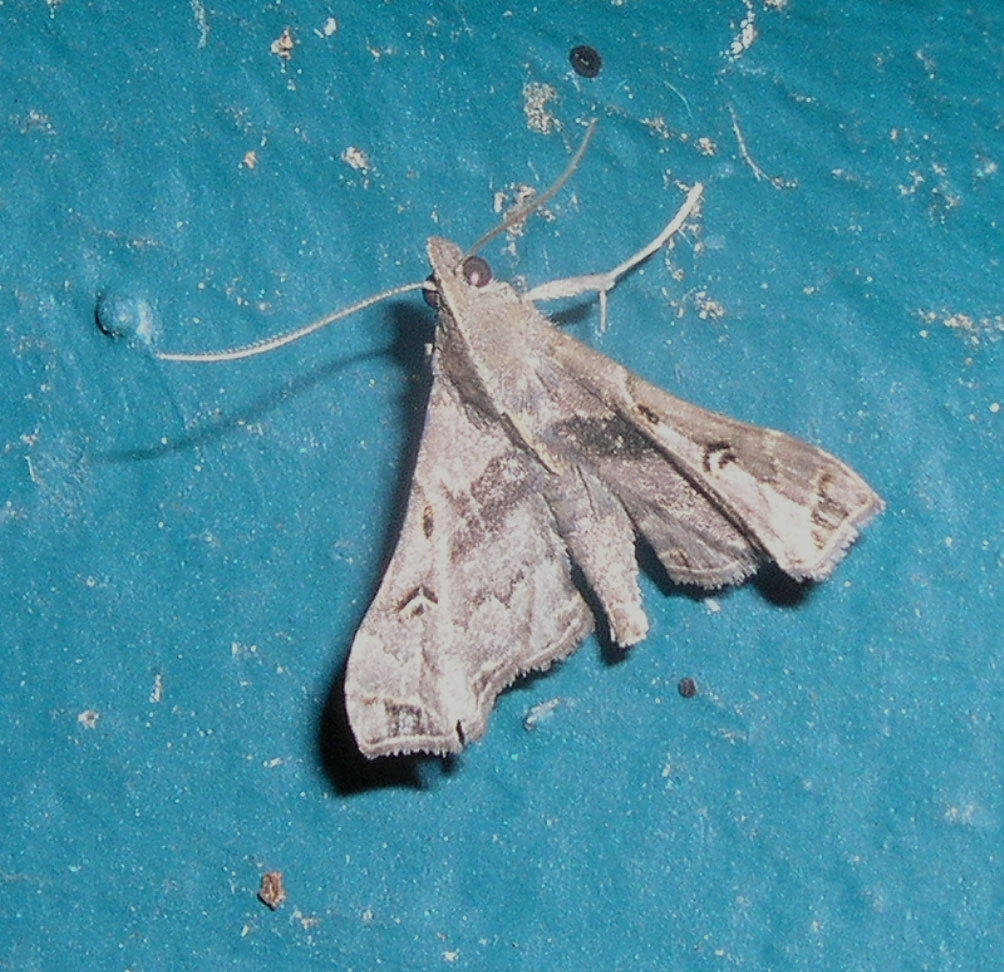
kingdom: Animalia
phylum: Arthropoda
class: Insecta
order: Lepidoptera
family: Erebidae
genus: Palthis
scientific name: Palthis asopialis
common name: Faint-spotted palthis moth
